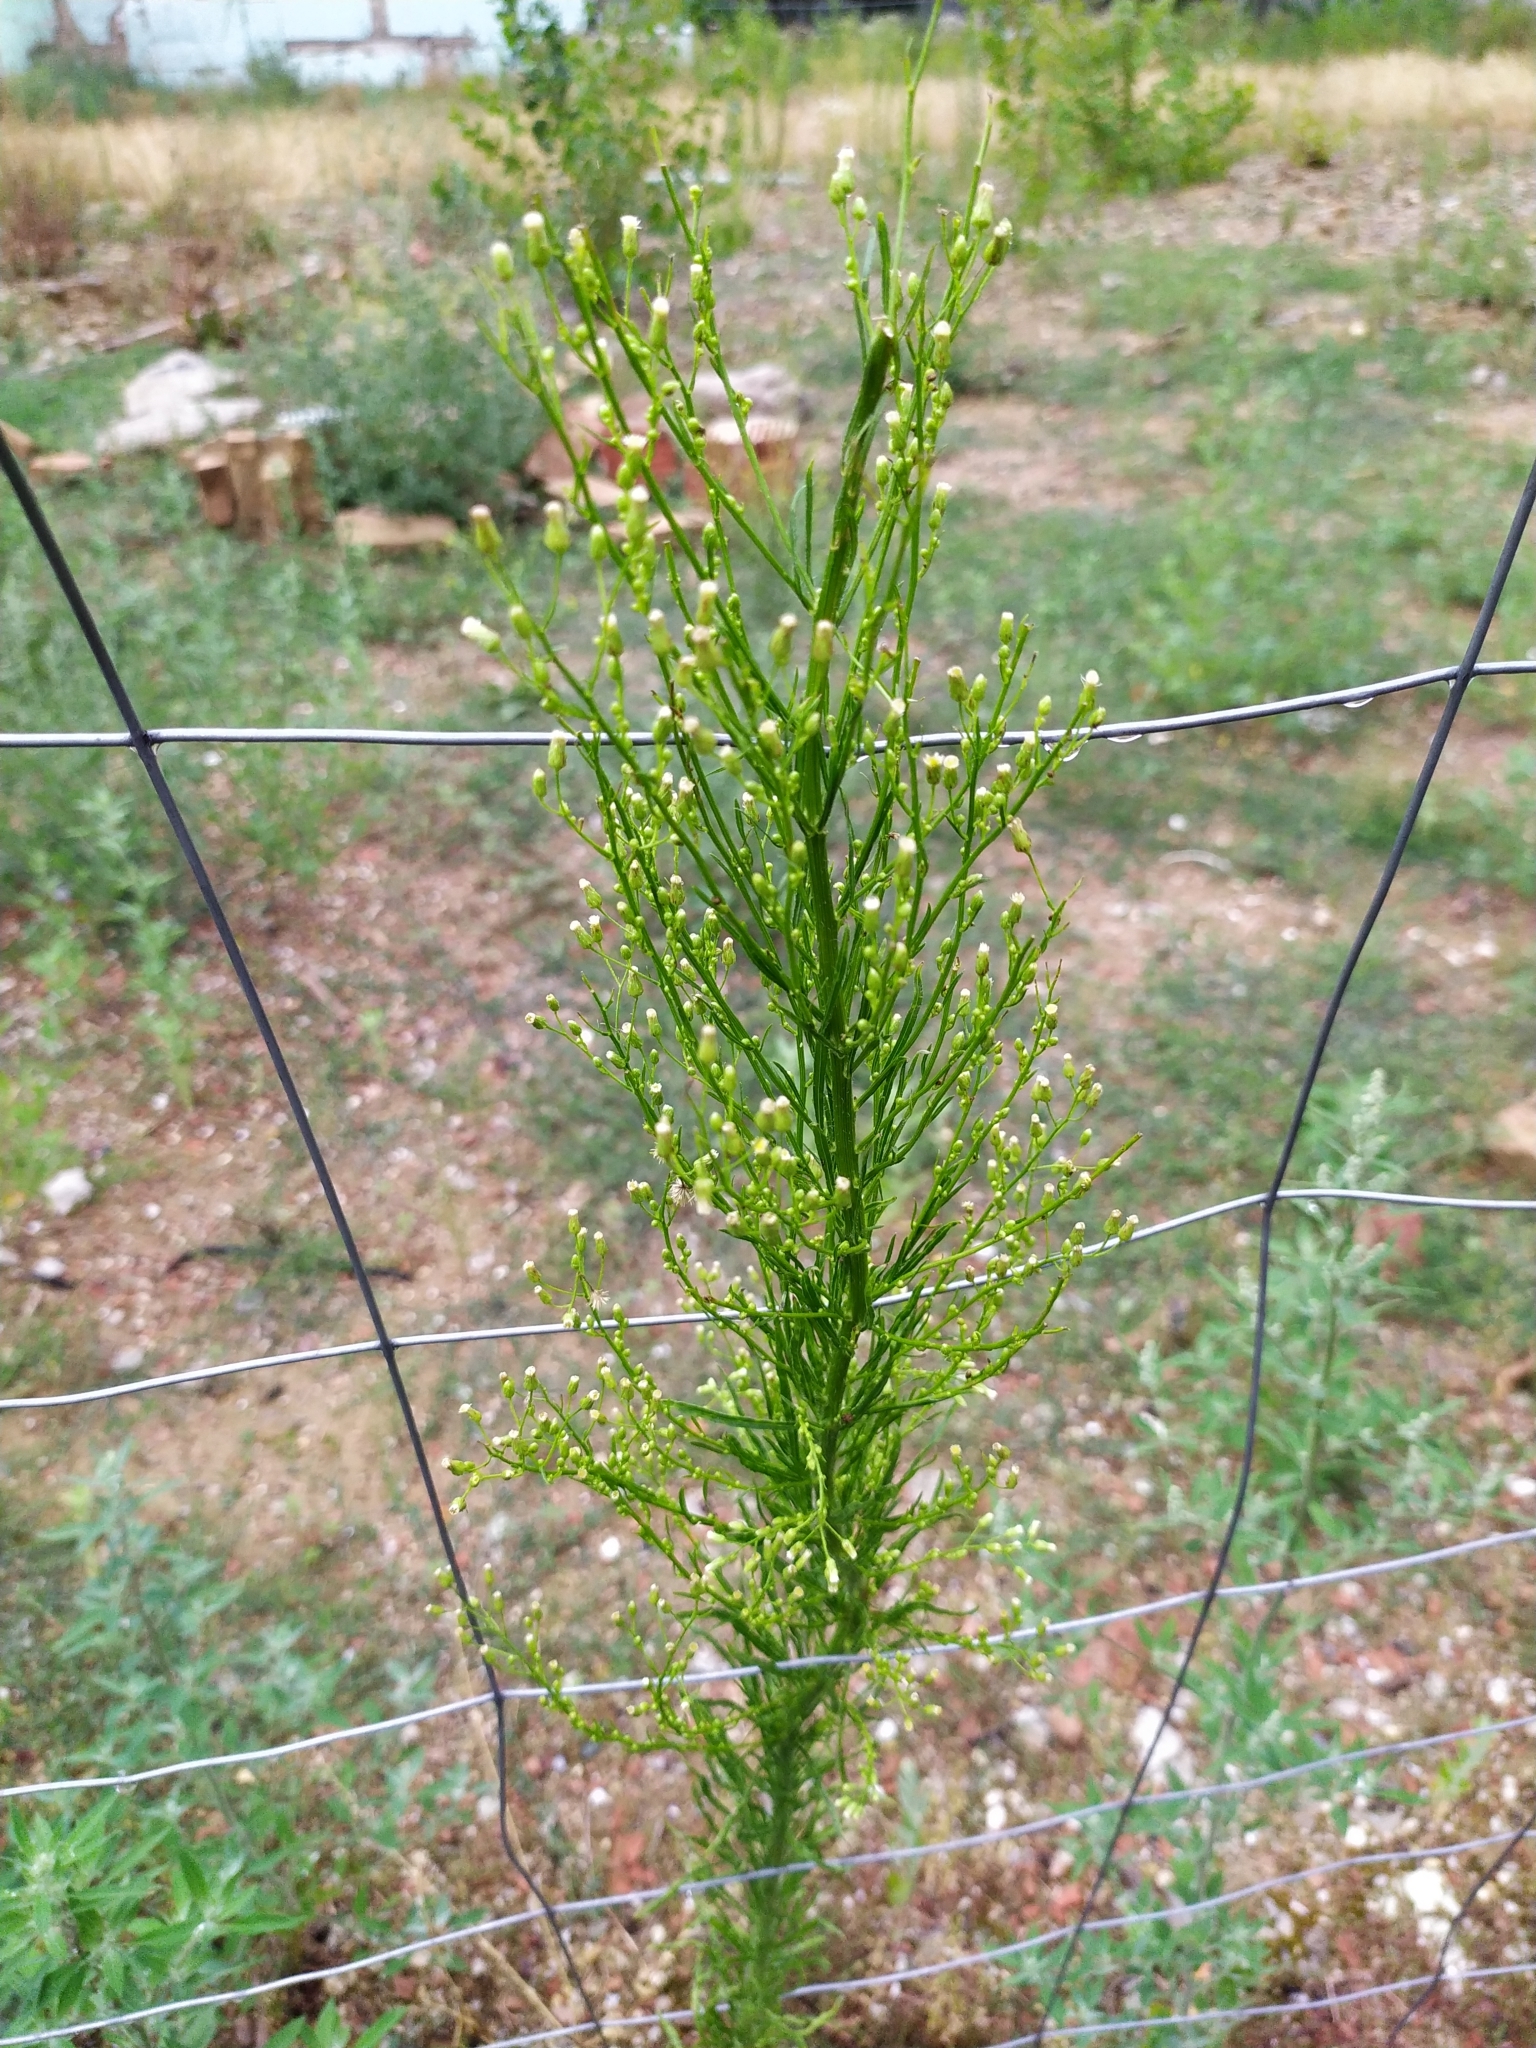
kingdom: Plantae
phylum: Tracheophyta
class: Magnoliopsida
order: Asterales
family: Asteraceae
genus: Erigeron
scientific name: Erigeron canadensis
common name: Canadian fleabane
